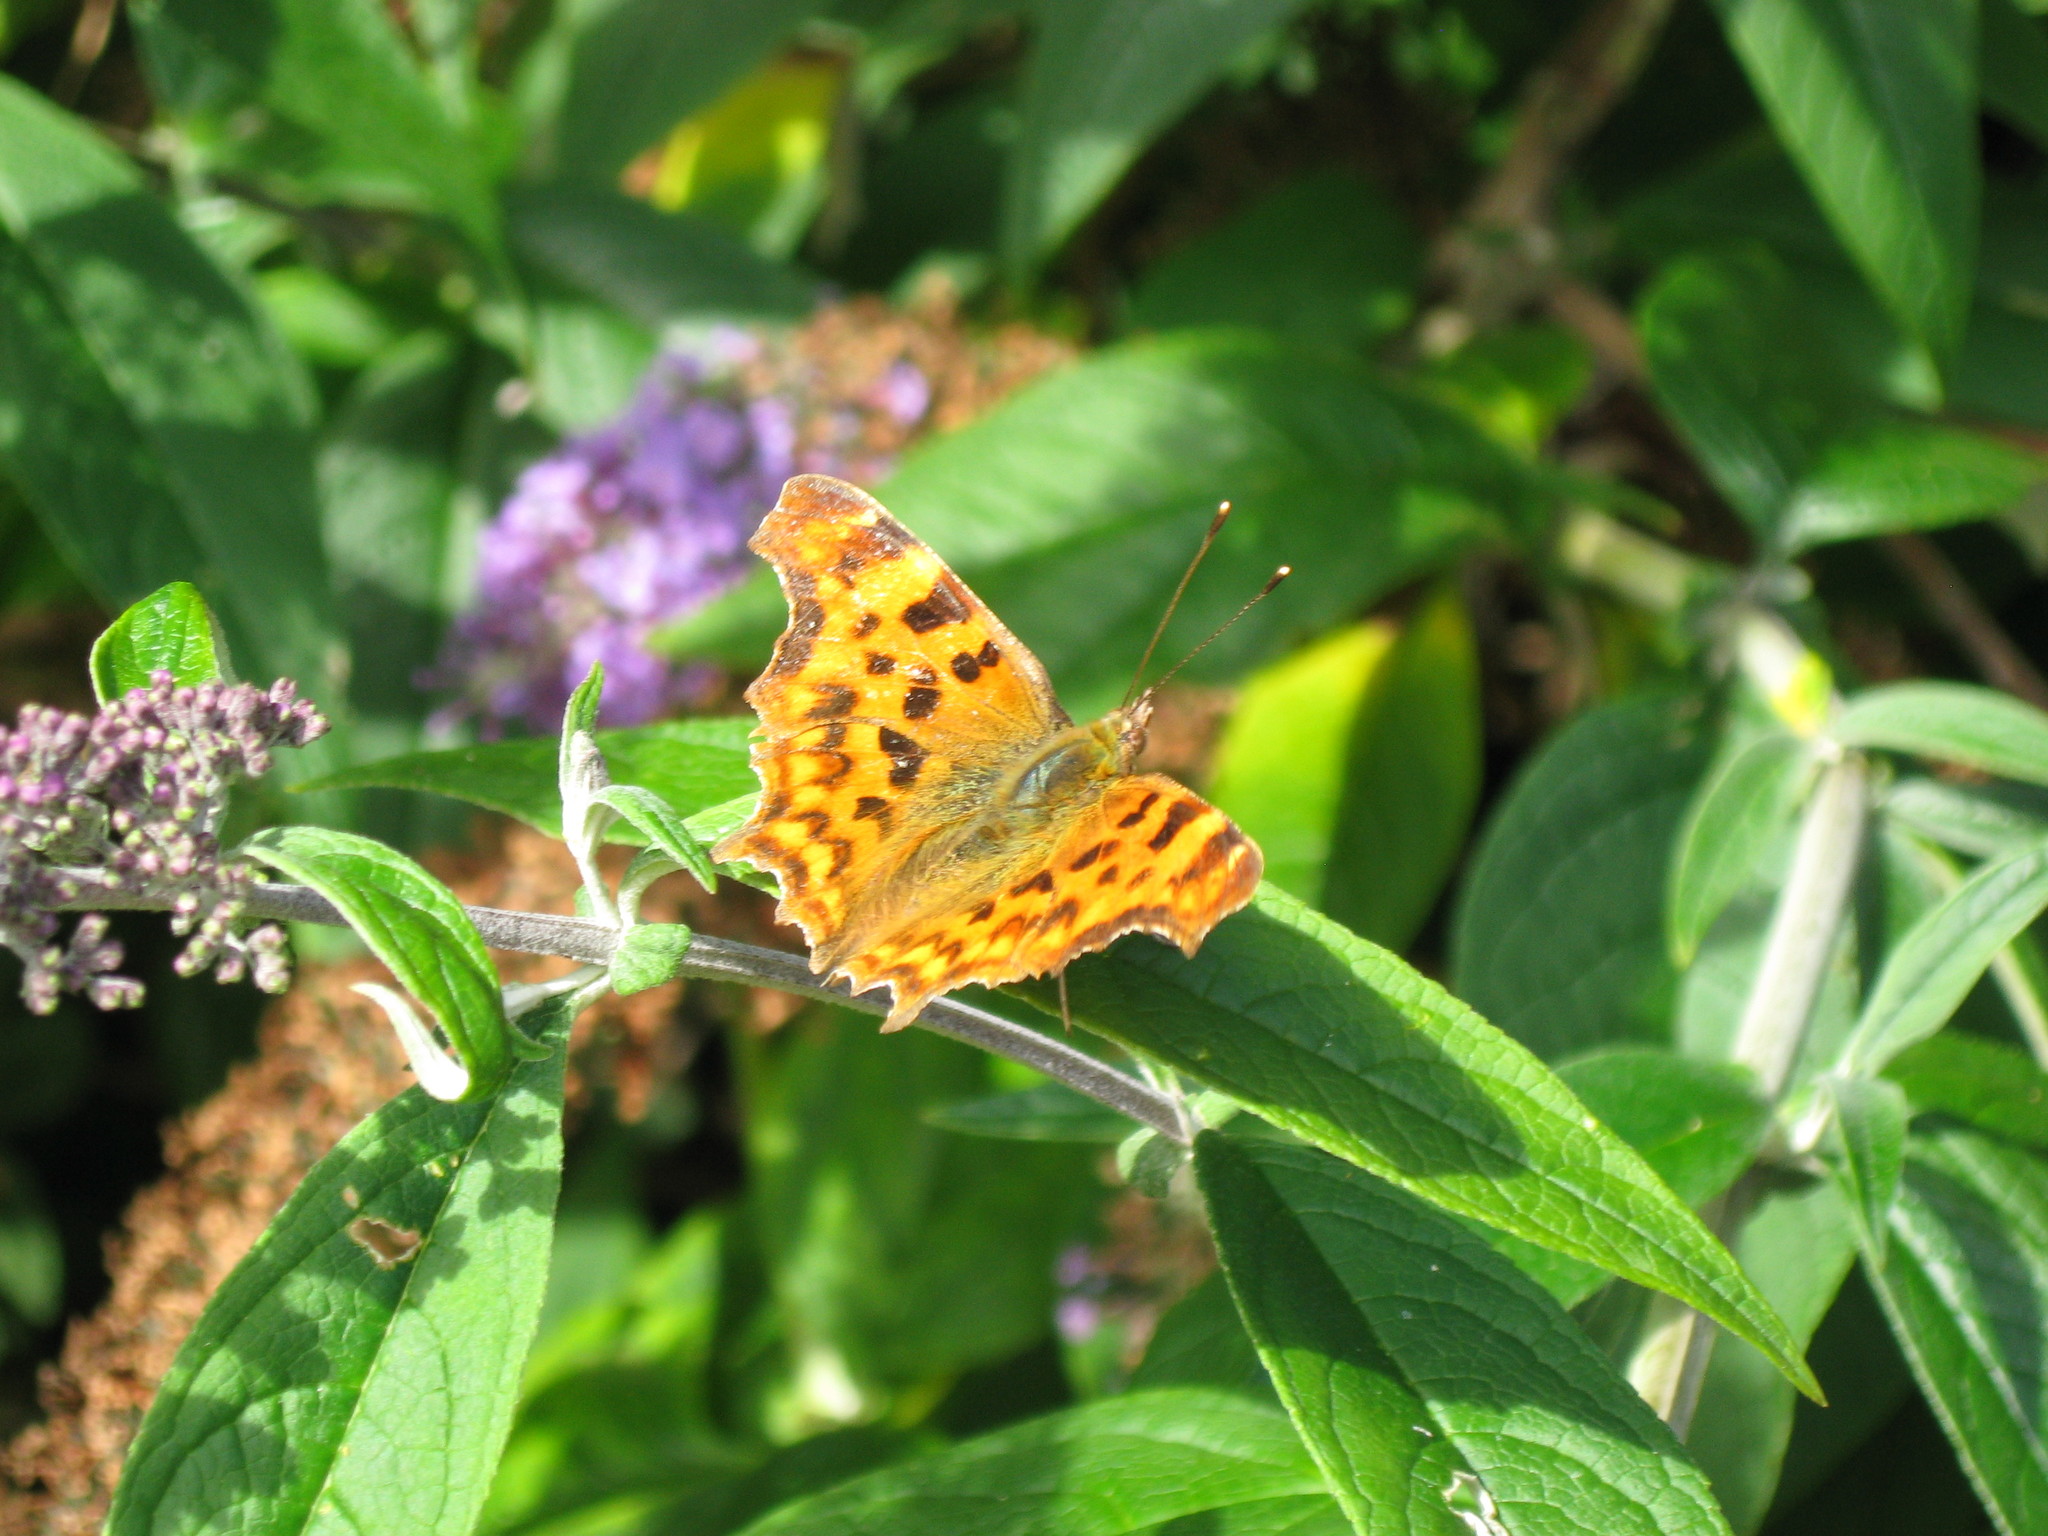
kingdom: Animalia
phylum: Arthropoda
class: Insecta
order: Lepidoptera
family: Nymphalidae
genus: Polygonia
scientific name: Polygonia c-album
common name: Comma
